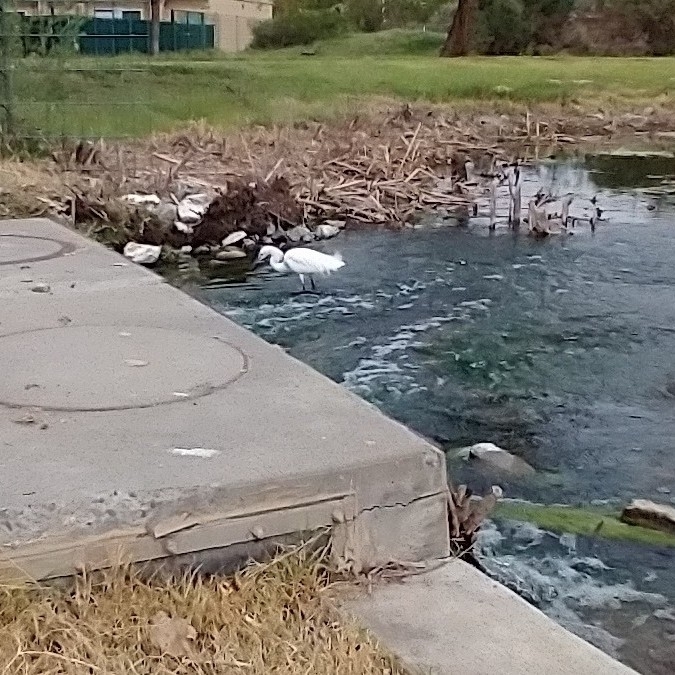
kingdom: Animalia
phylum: Chordata
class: Aves
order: Pelecaniformes
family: Ardeidae
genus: Egretta
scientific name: Egretta thula
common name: Snowy egret
